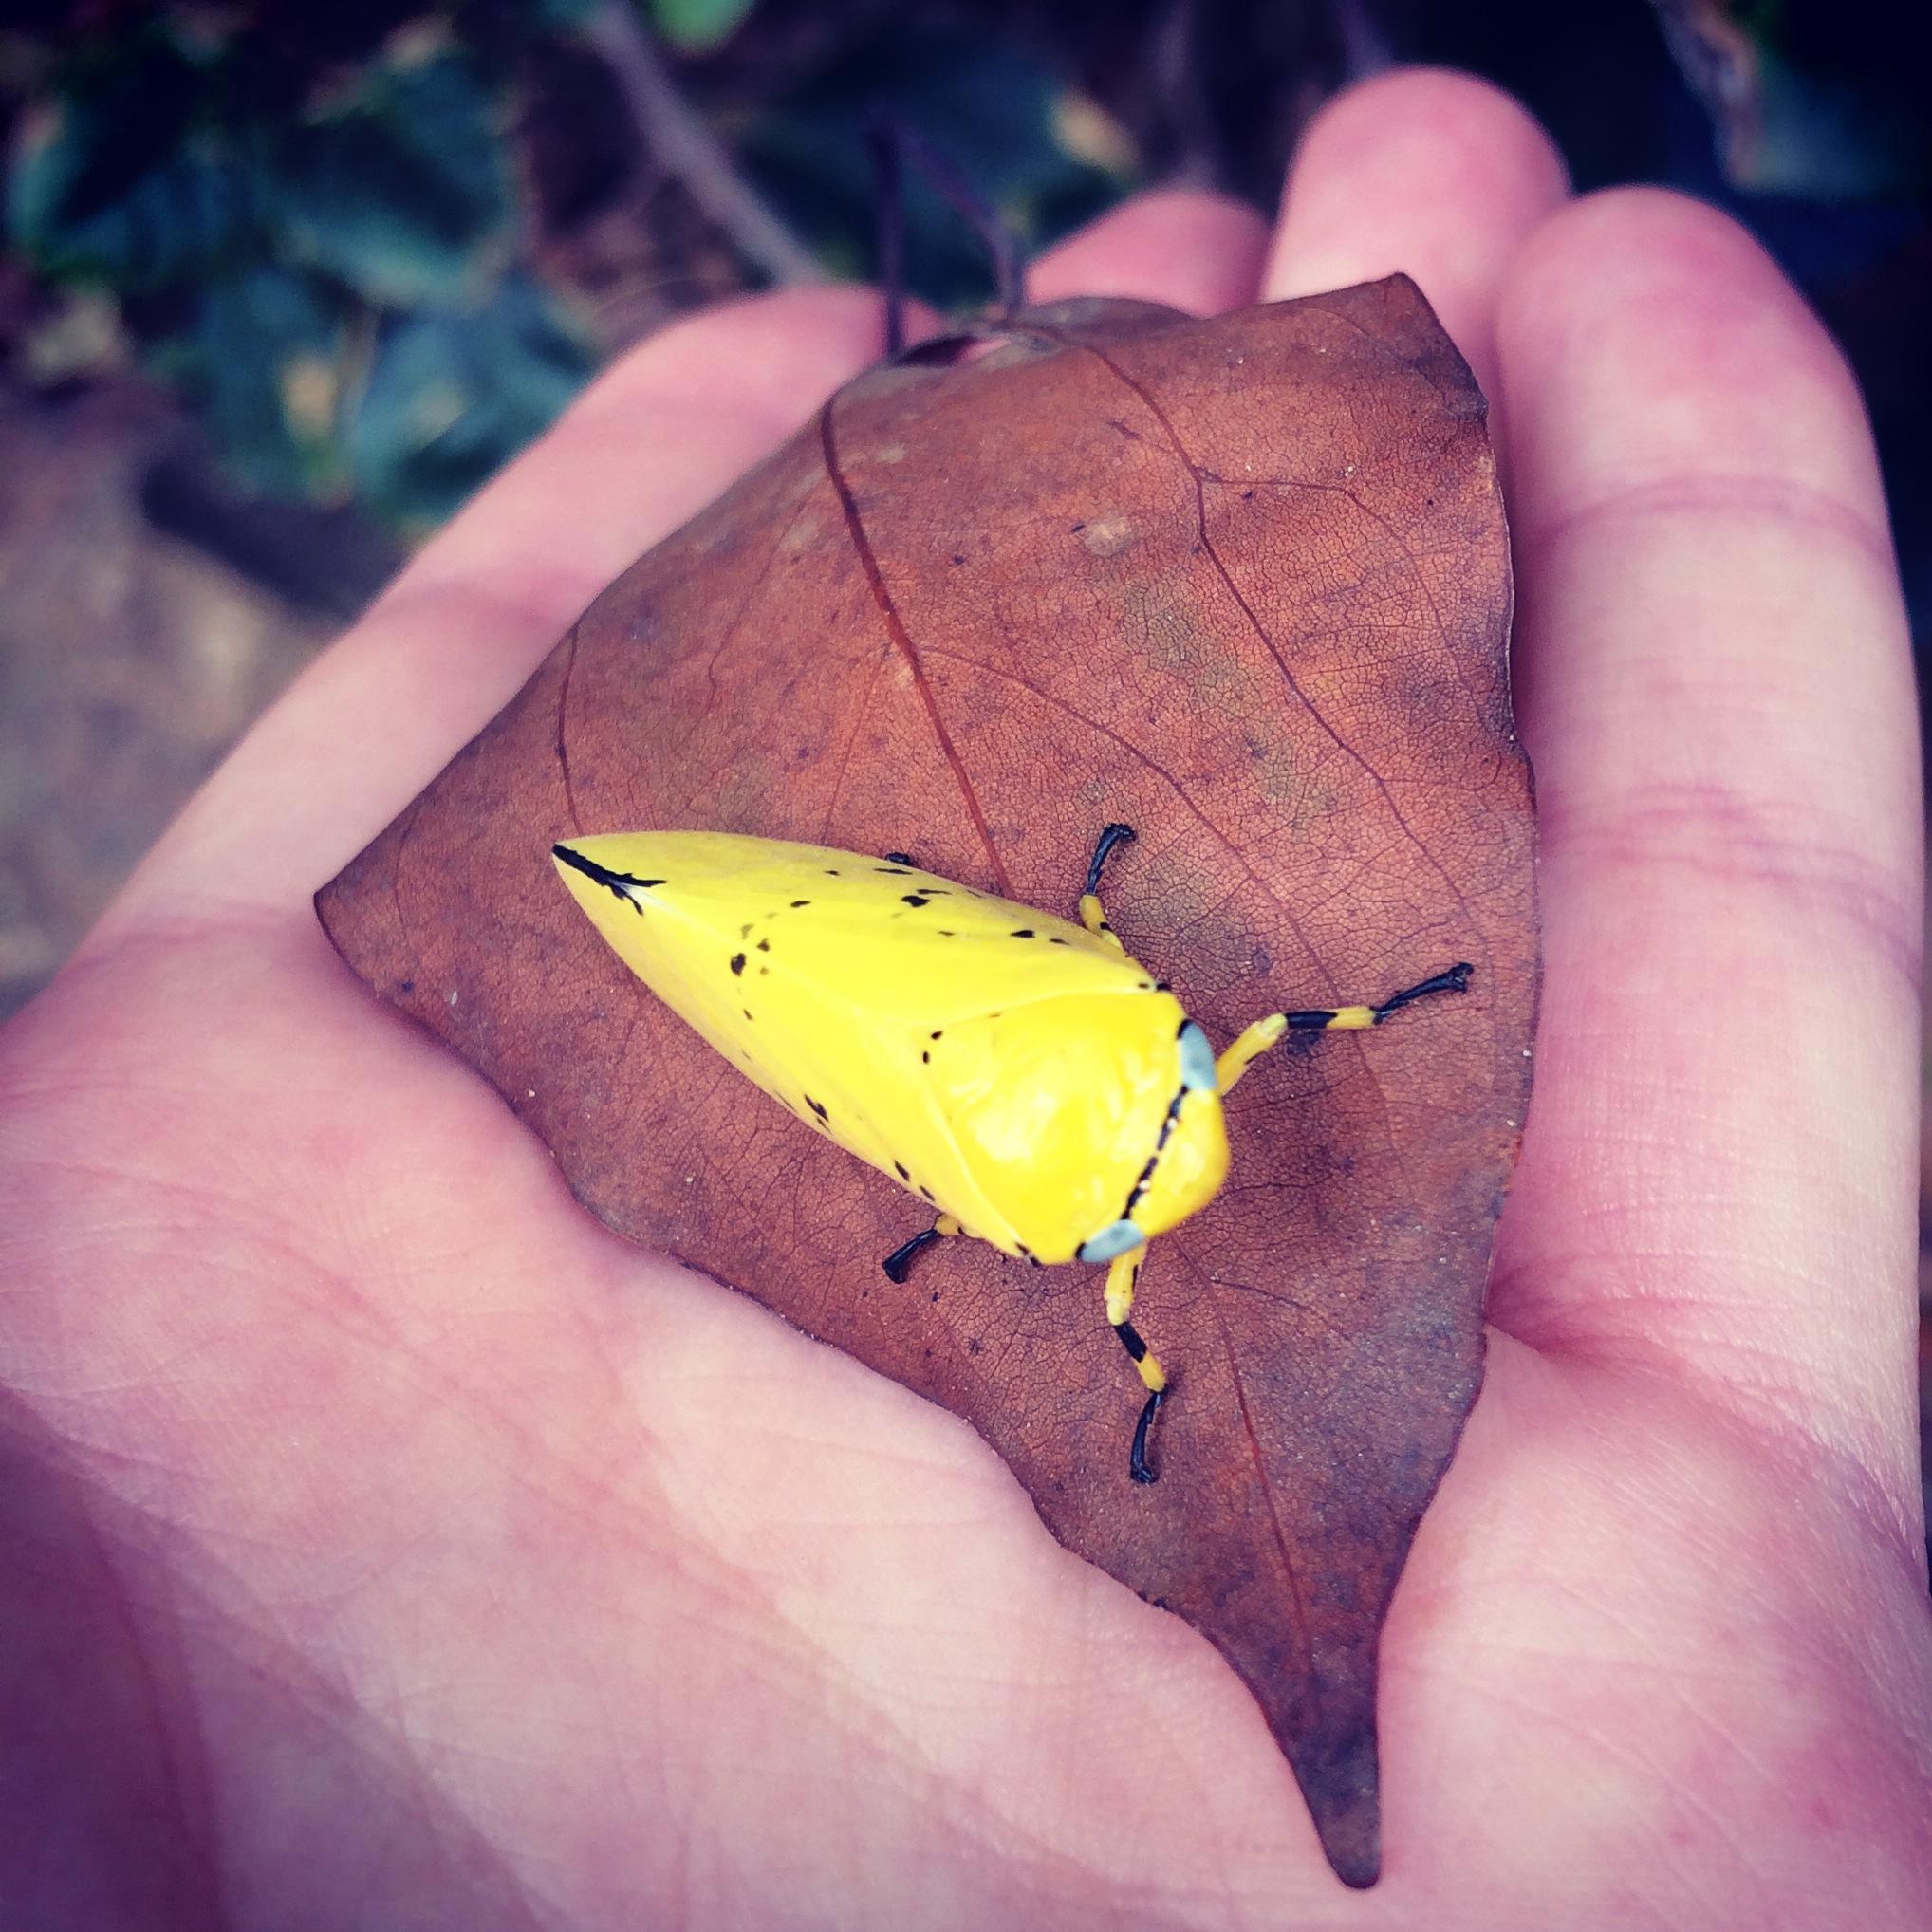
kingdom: Animalia
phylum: Arthropoda
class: Insecta
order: Hemiptera
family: Aphrophoridae
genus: Ptyelus
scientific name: Ptyelus flavescens
